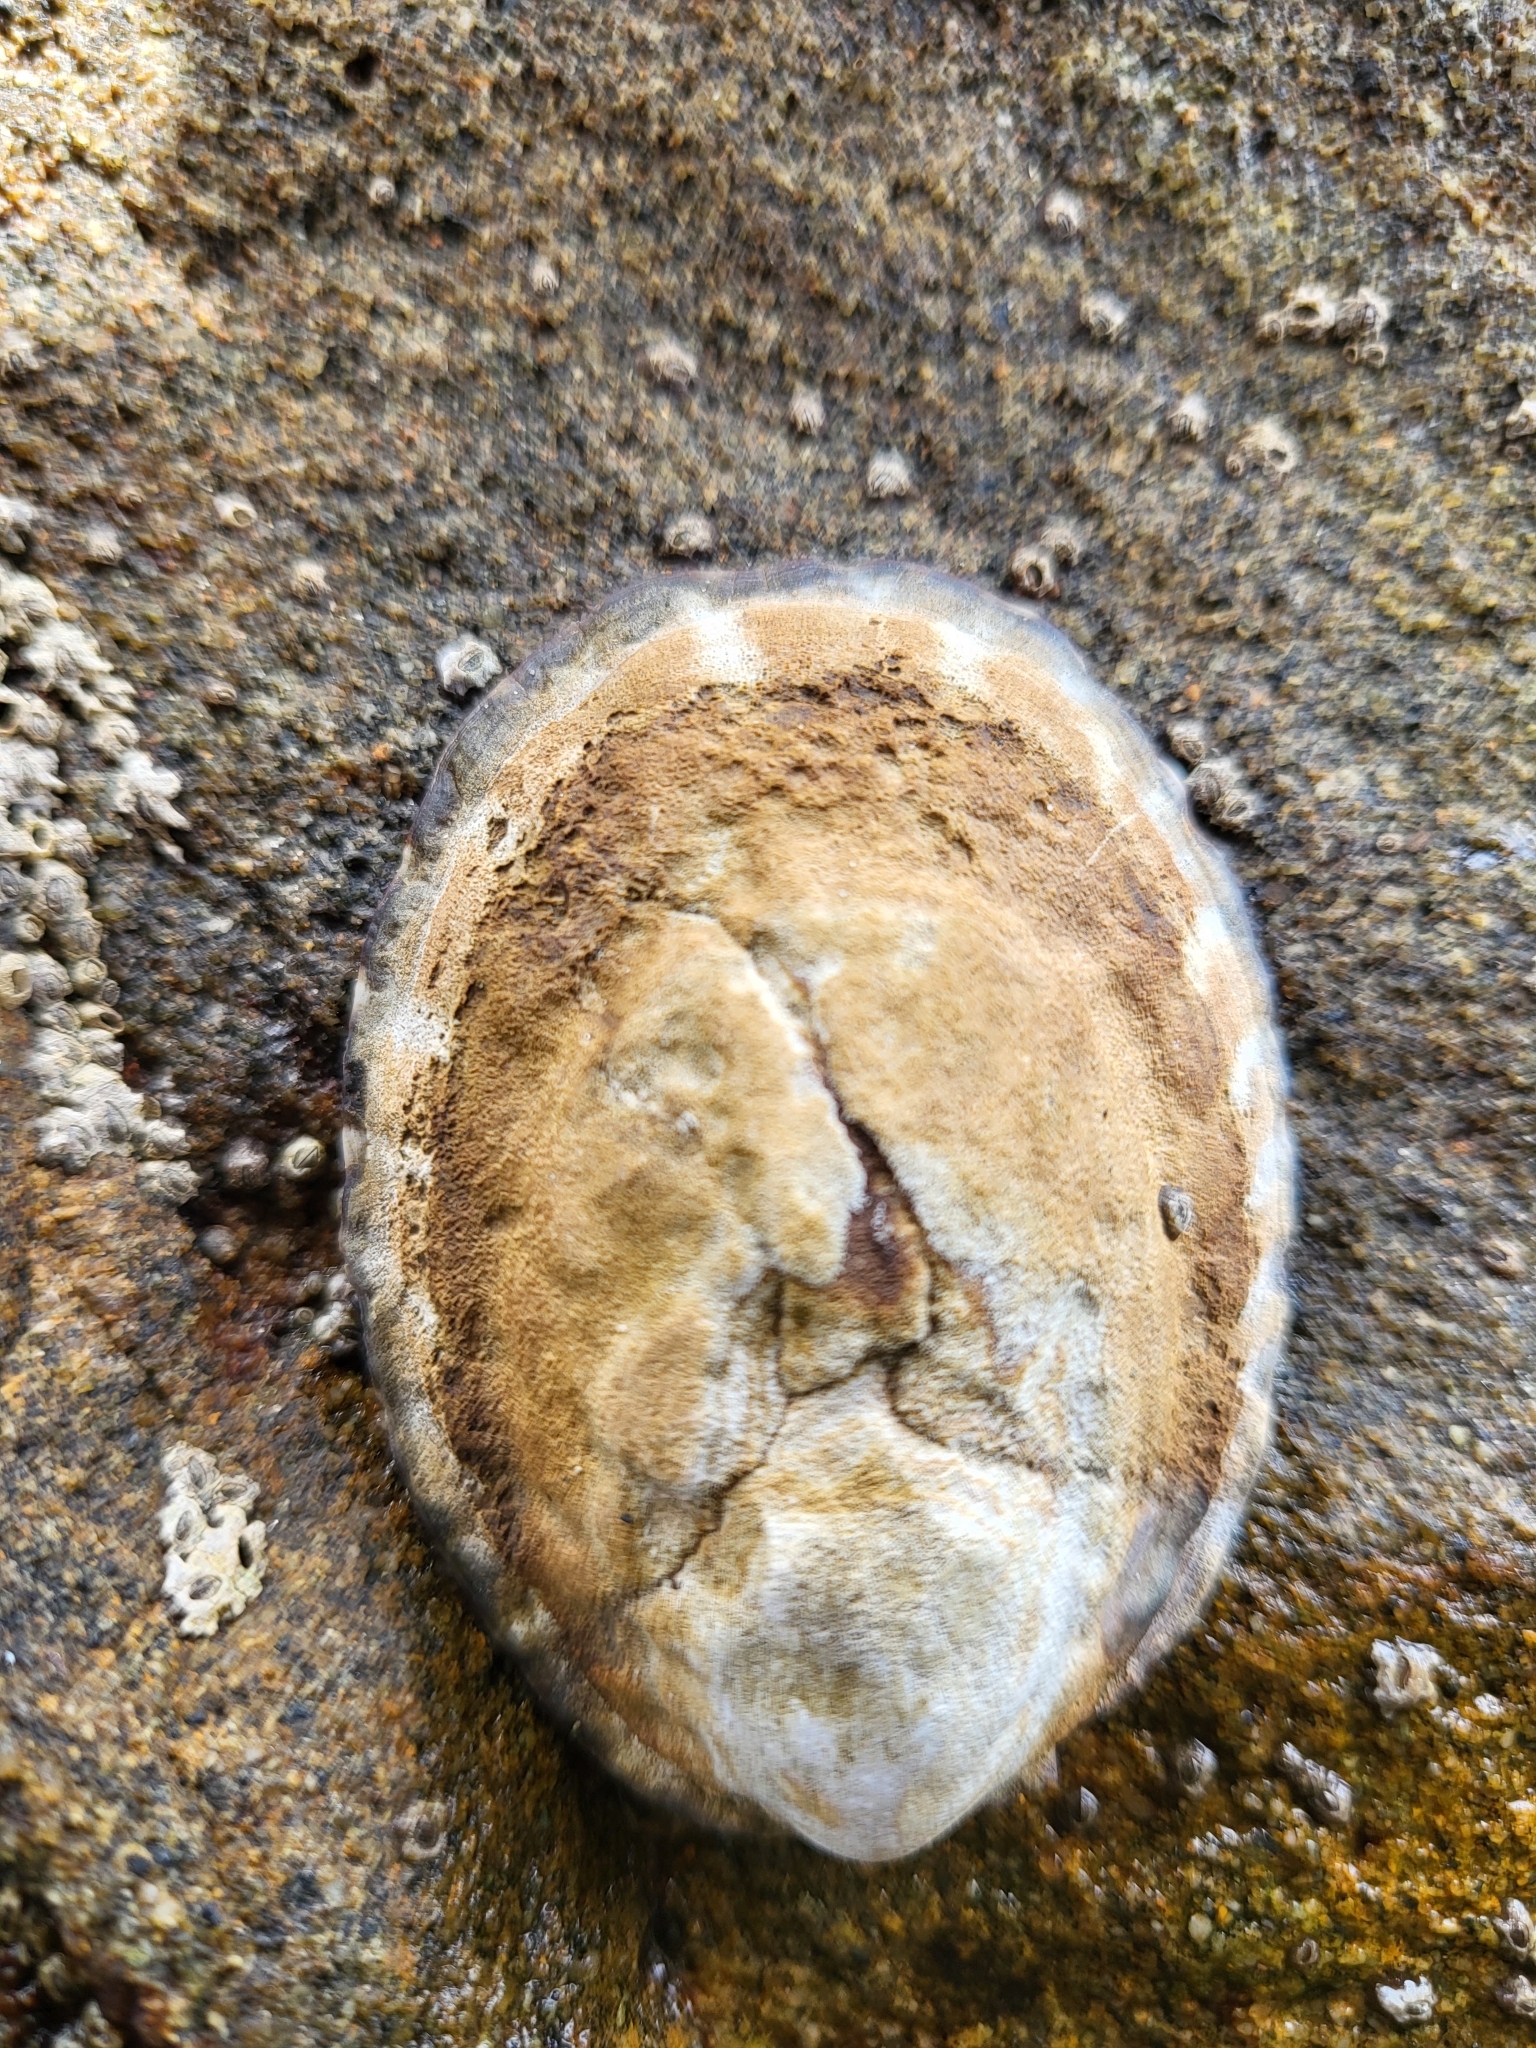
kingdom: Animalia
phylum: Mollusca
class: Gastropoda
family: Lottiidae
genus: Lottia
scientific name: Lottia gigantea
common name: Owl limpet
